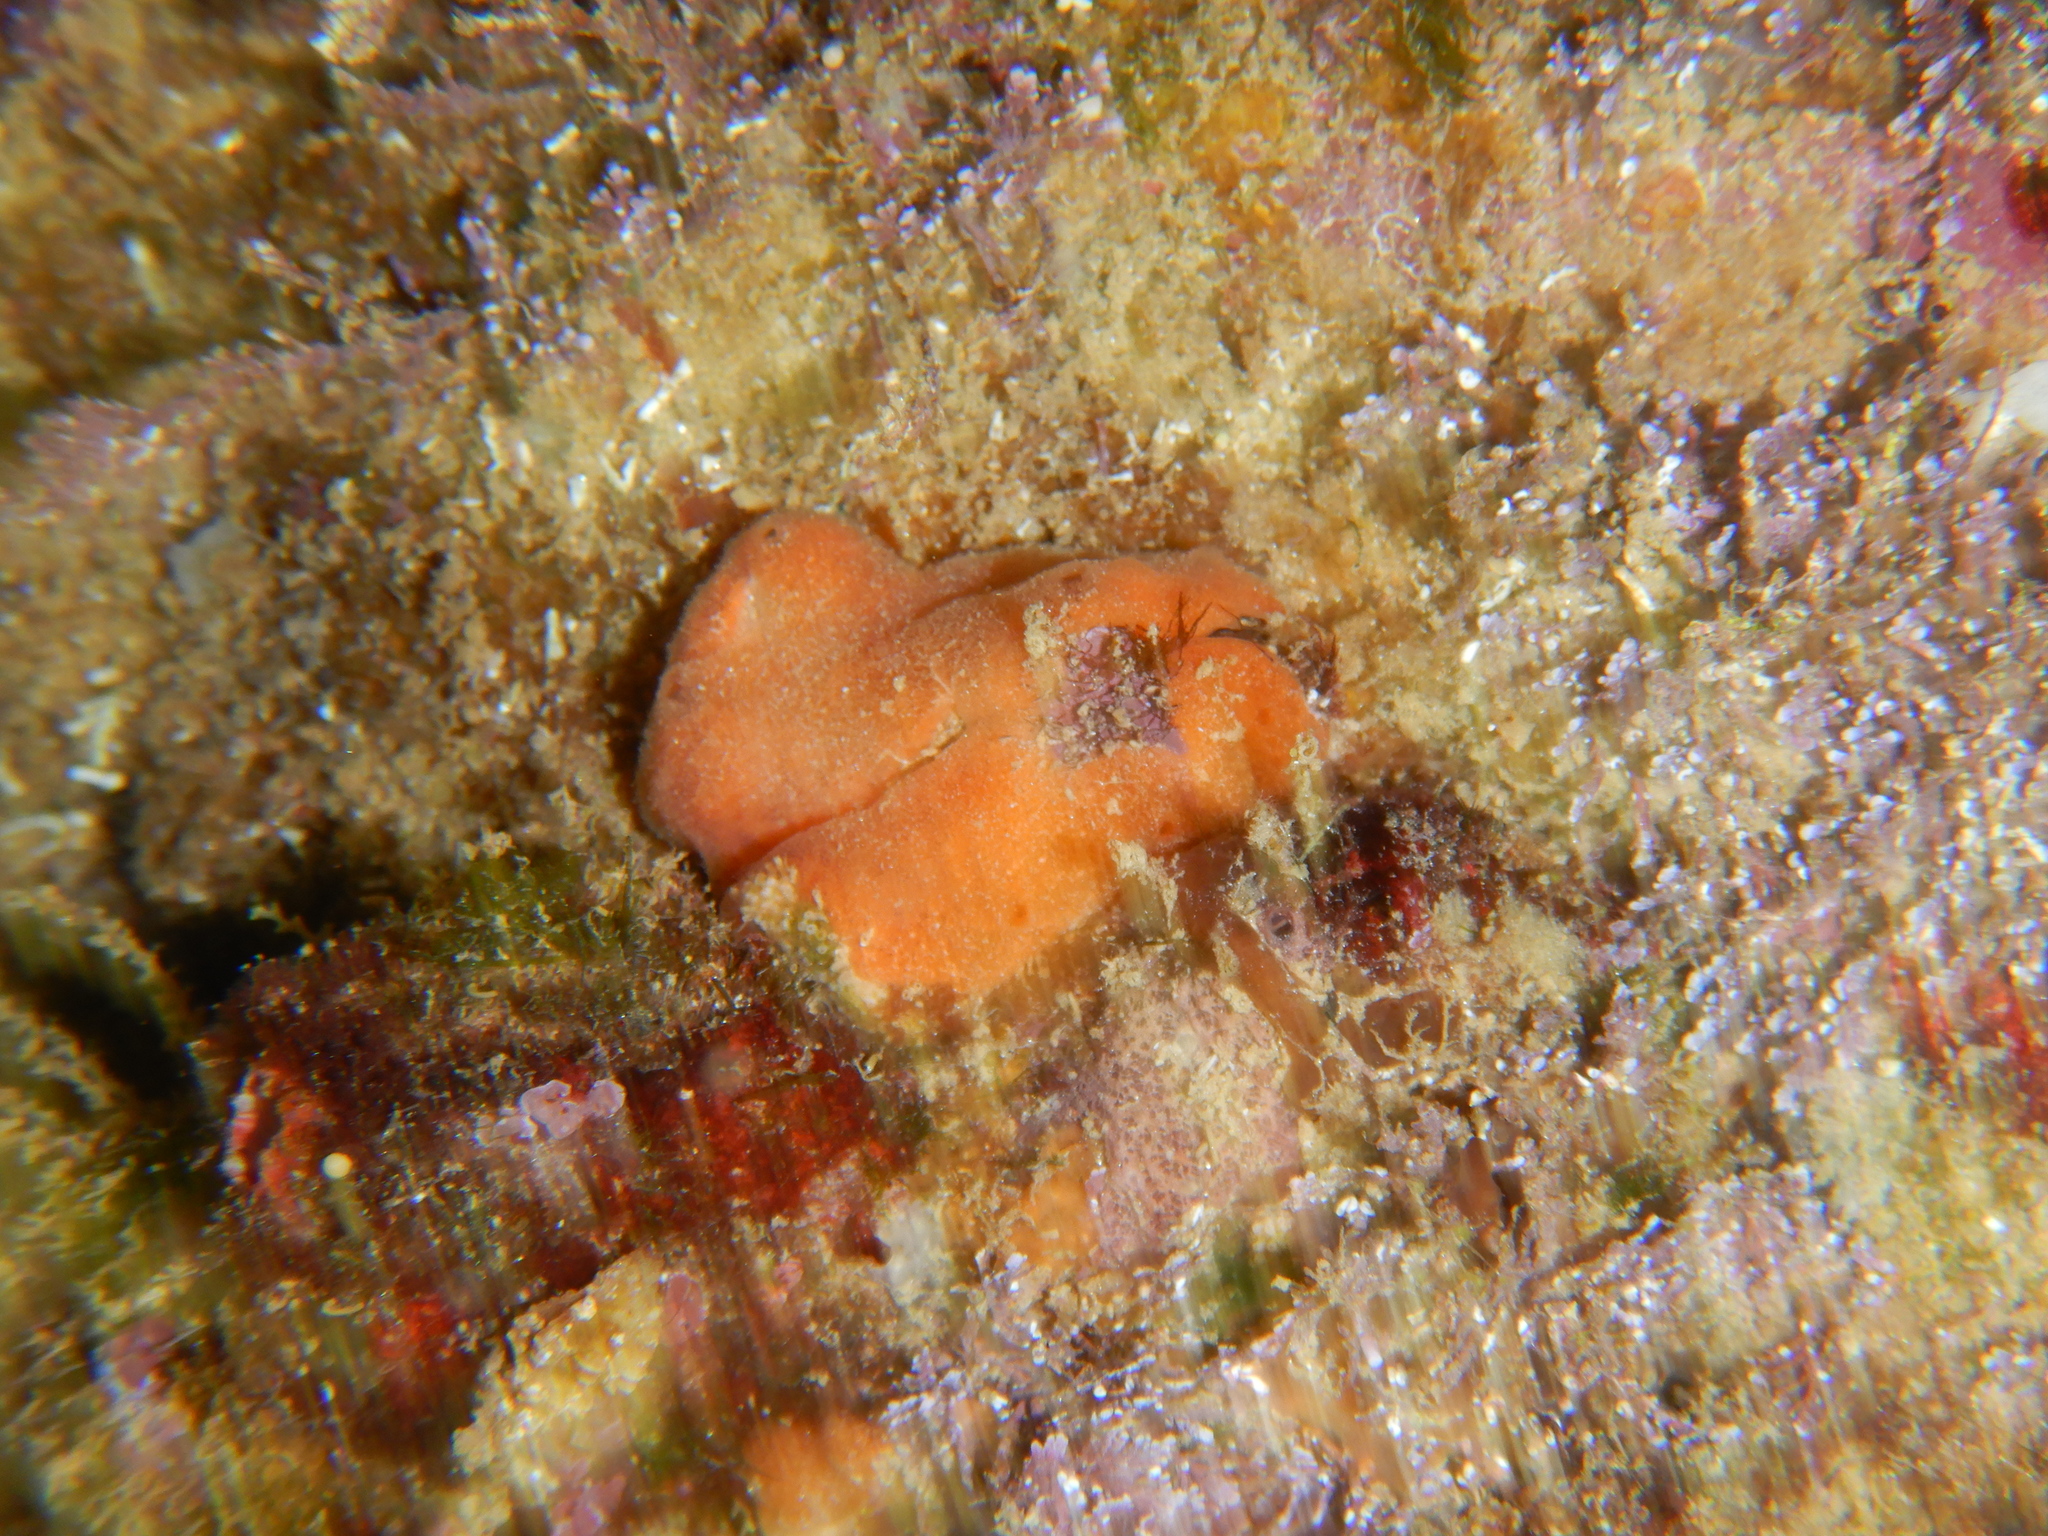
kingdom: Animalia
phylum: Mollusca
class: Bivalvia
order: Arcida
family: Arcidae
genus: Arca
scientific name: Arca noae
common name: Noah's arch
